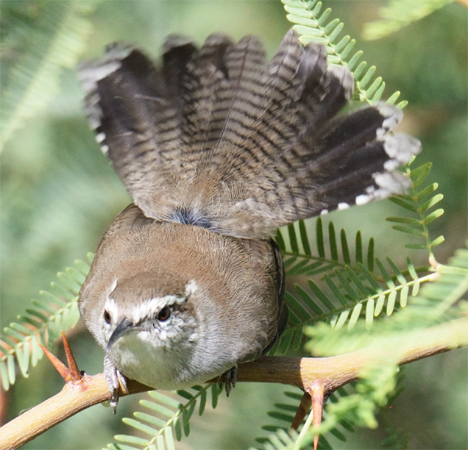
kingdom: Animalia
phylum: Chordata
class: Aves
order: Passeriformes
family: Troglodytidae
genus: Thryomanes
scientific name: Thryomanes bewickii
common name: Bewick's wren
